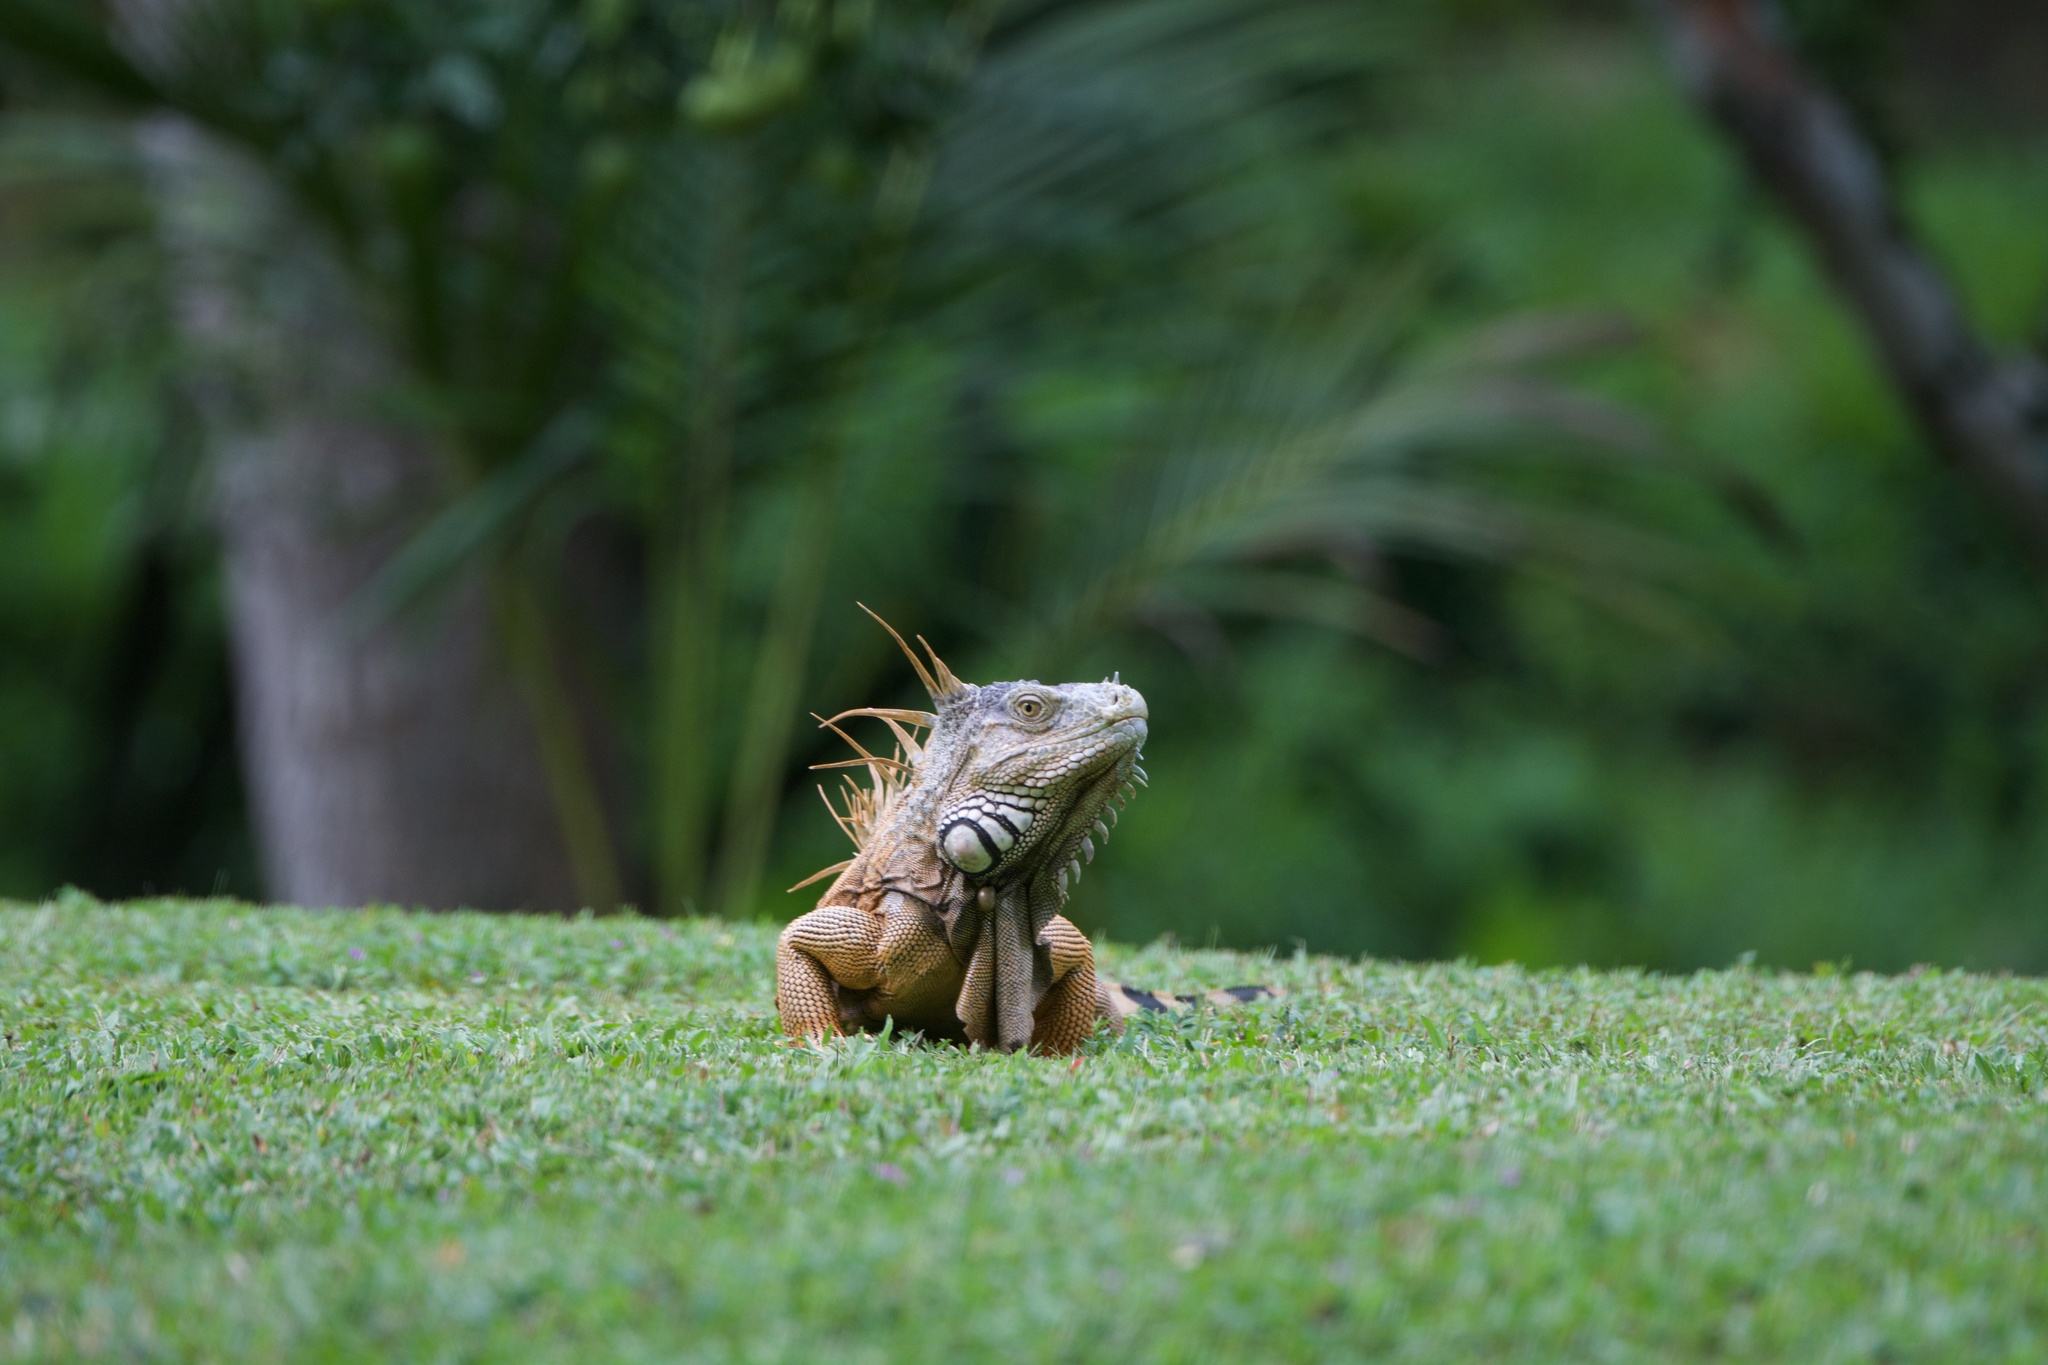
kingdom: Animalia
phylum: Chordata
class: Squamata
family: Iguanidae
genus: Iguana
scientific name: Iguana iguana
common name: Green iguana
